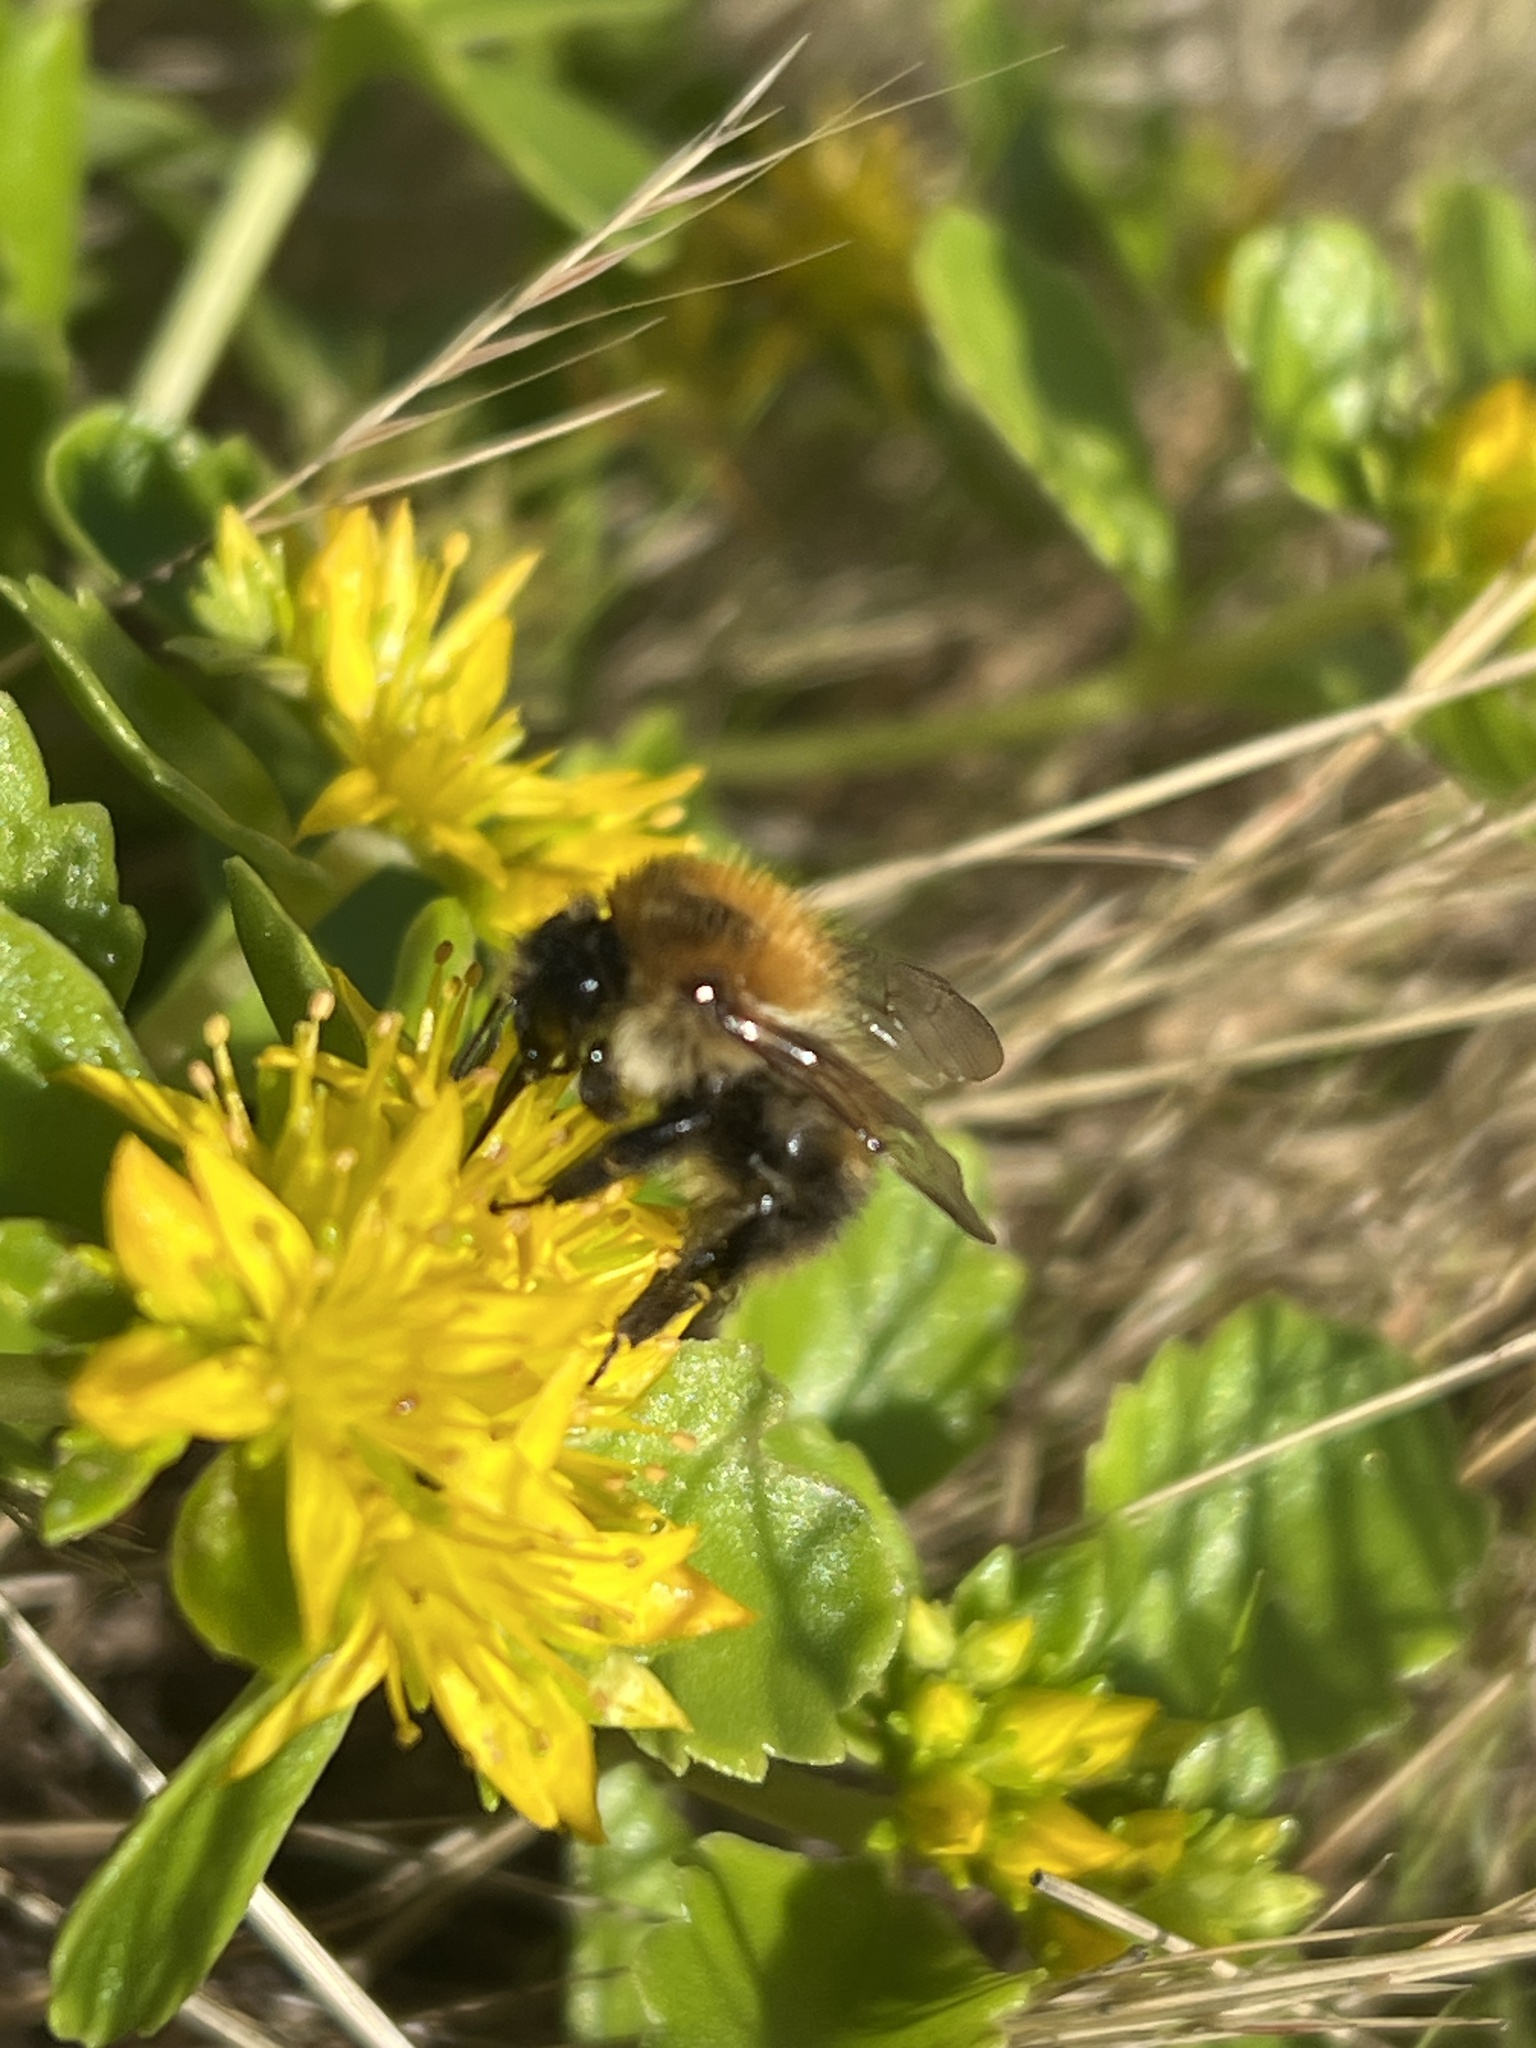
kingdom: Animalia
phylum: Arthropoda
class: Insecta
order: Hymenoptera
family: Apidae
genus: Bombus
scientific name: Bombus pascuorum
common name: Common carder bee
